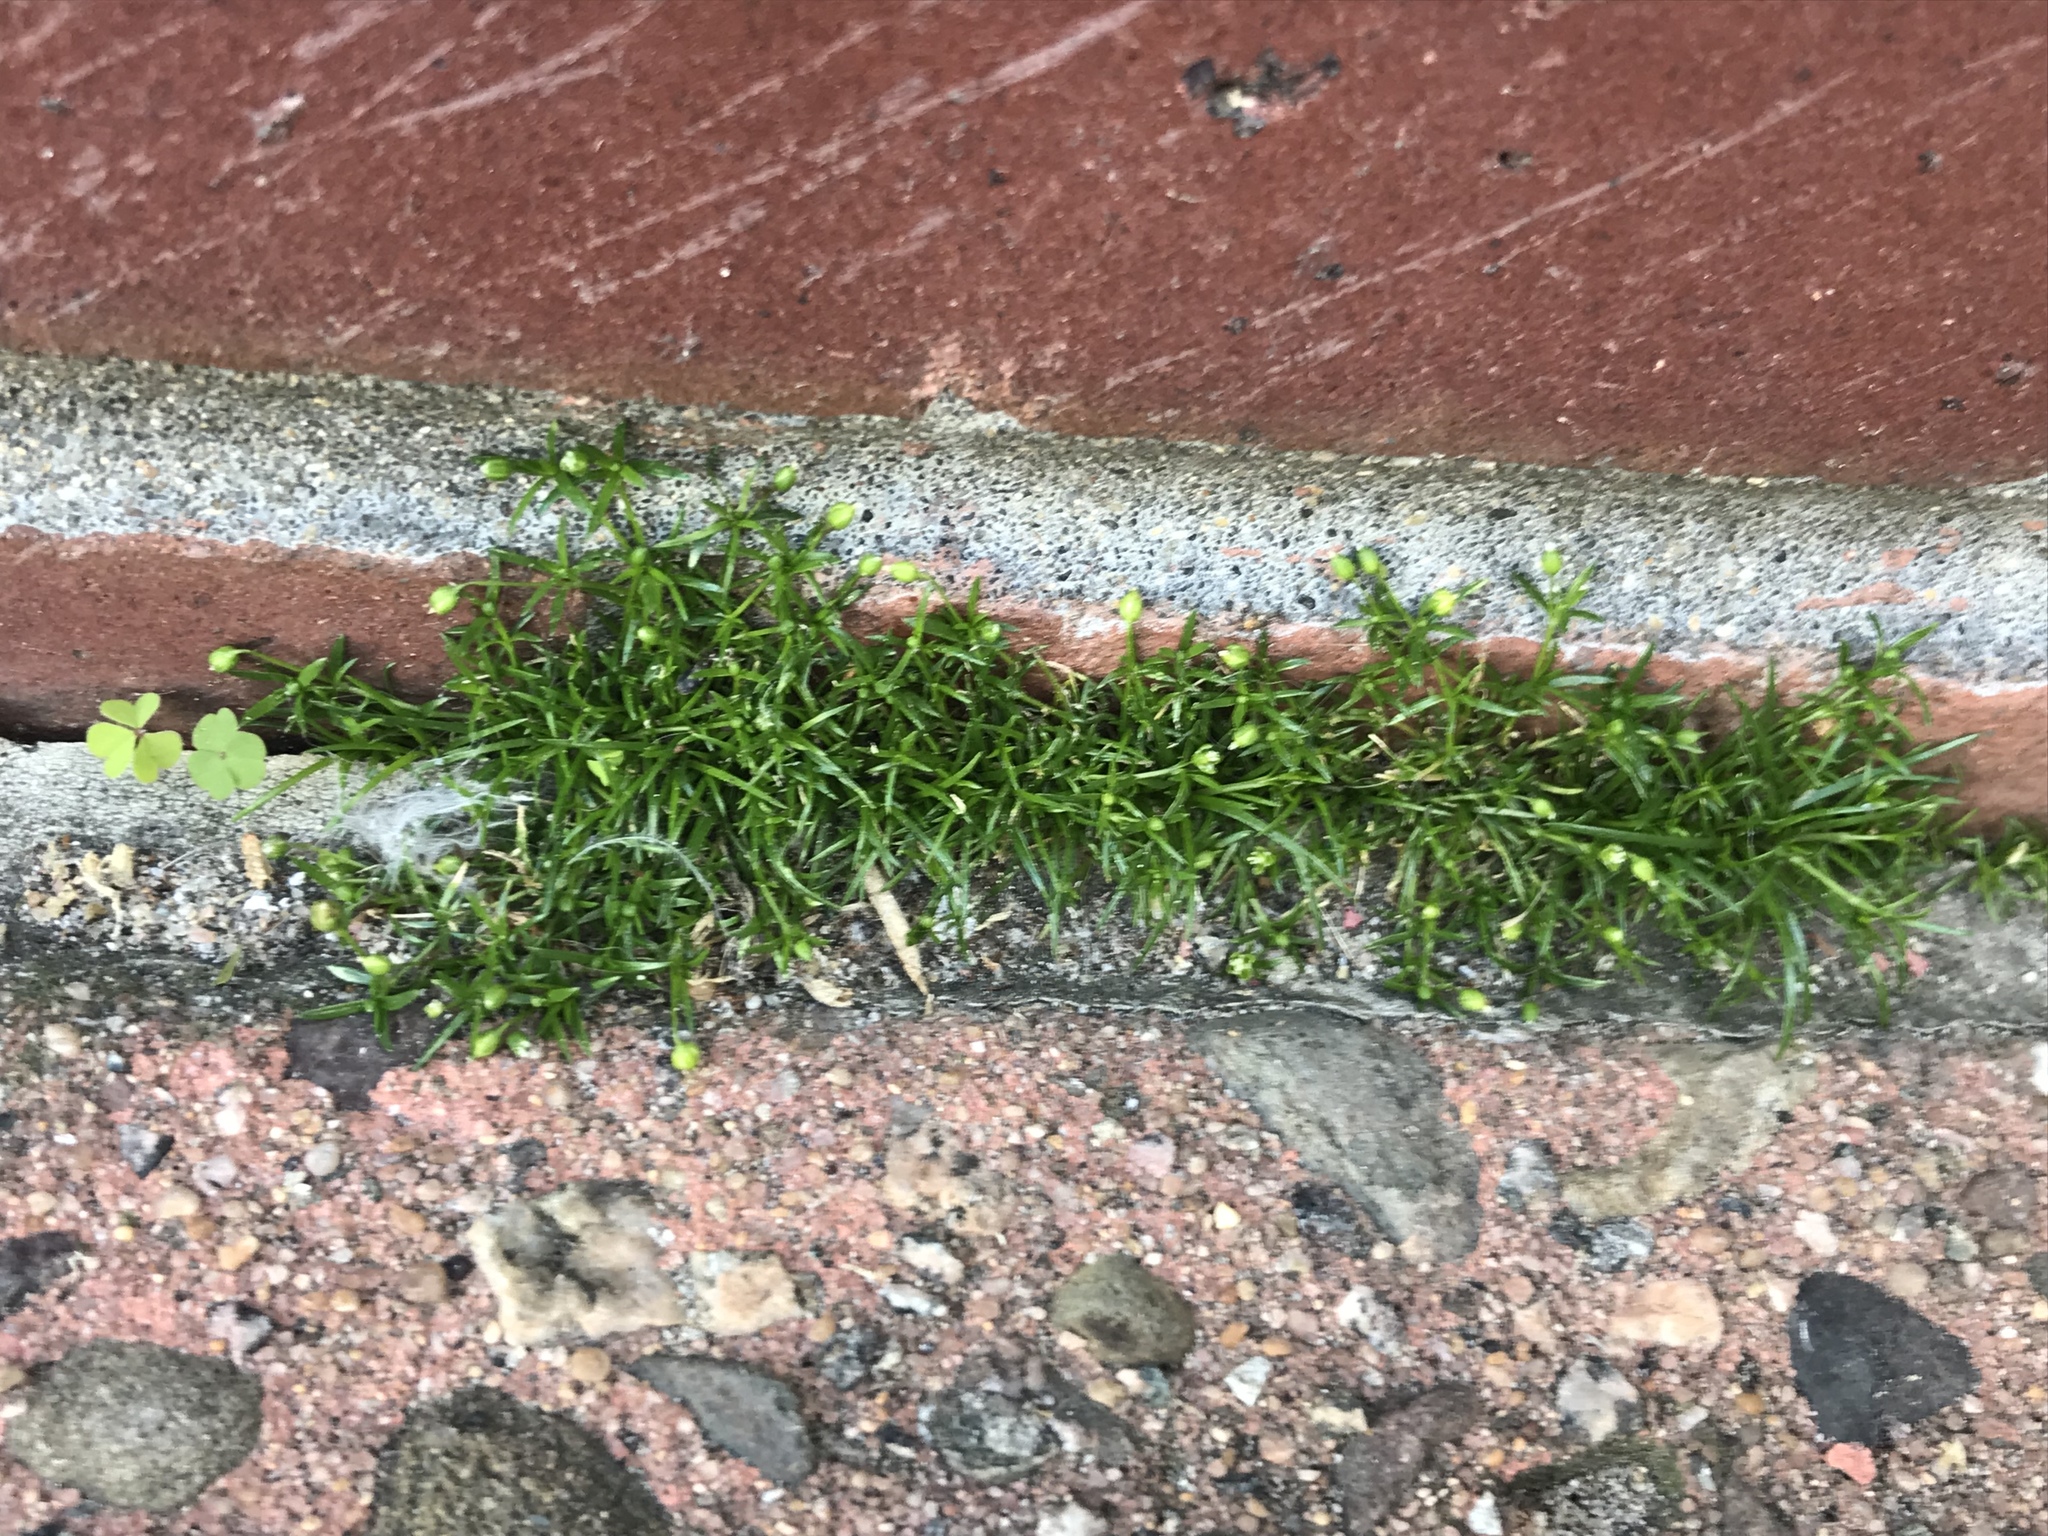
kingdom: Plantae
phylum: Tracheophyta
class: Magnoliopsida
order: Caryophyllales
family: Caryophyllaceae
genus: Sagina
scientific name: Sagina procumbens
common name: Procumbent pearlwort
